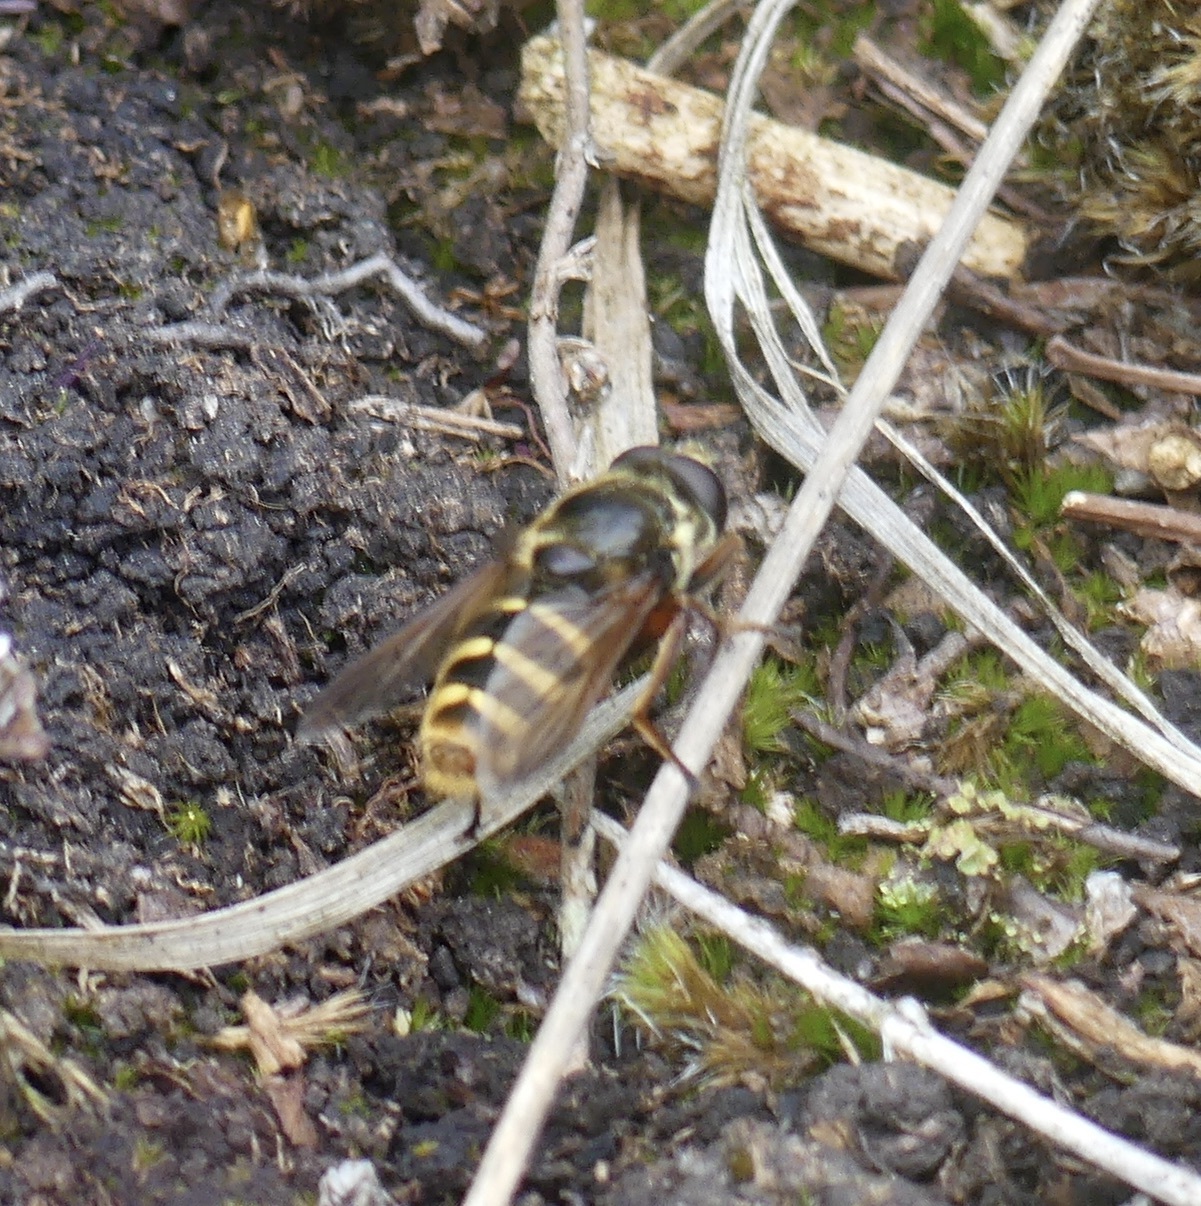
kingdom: Animalia
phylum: Arthropoda
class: Insecta
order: Diptera
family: Syrphidae
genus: Sericomyia
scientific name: Sericomyia silentis
